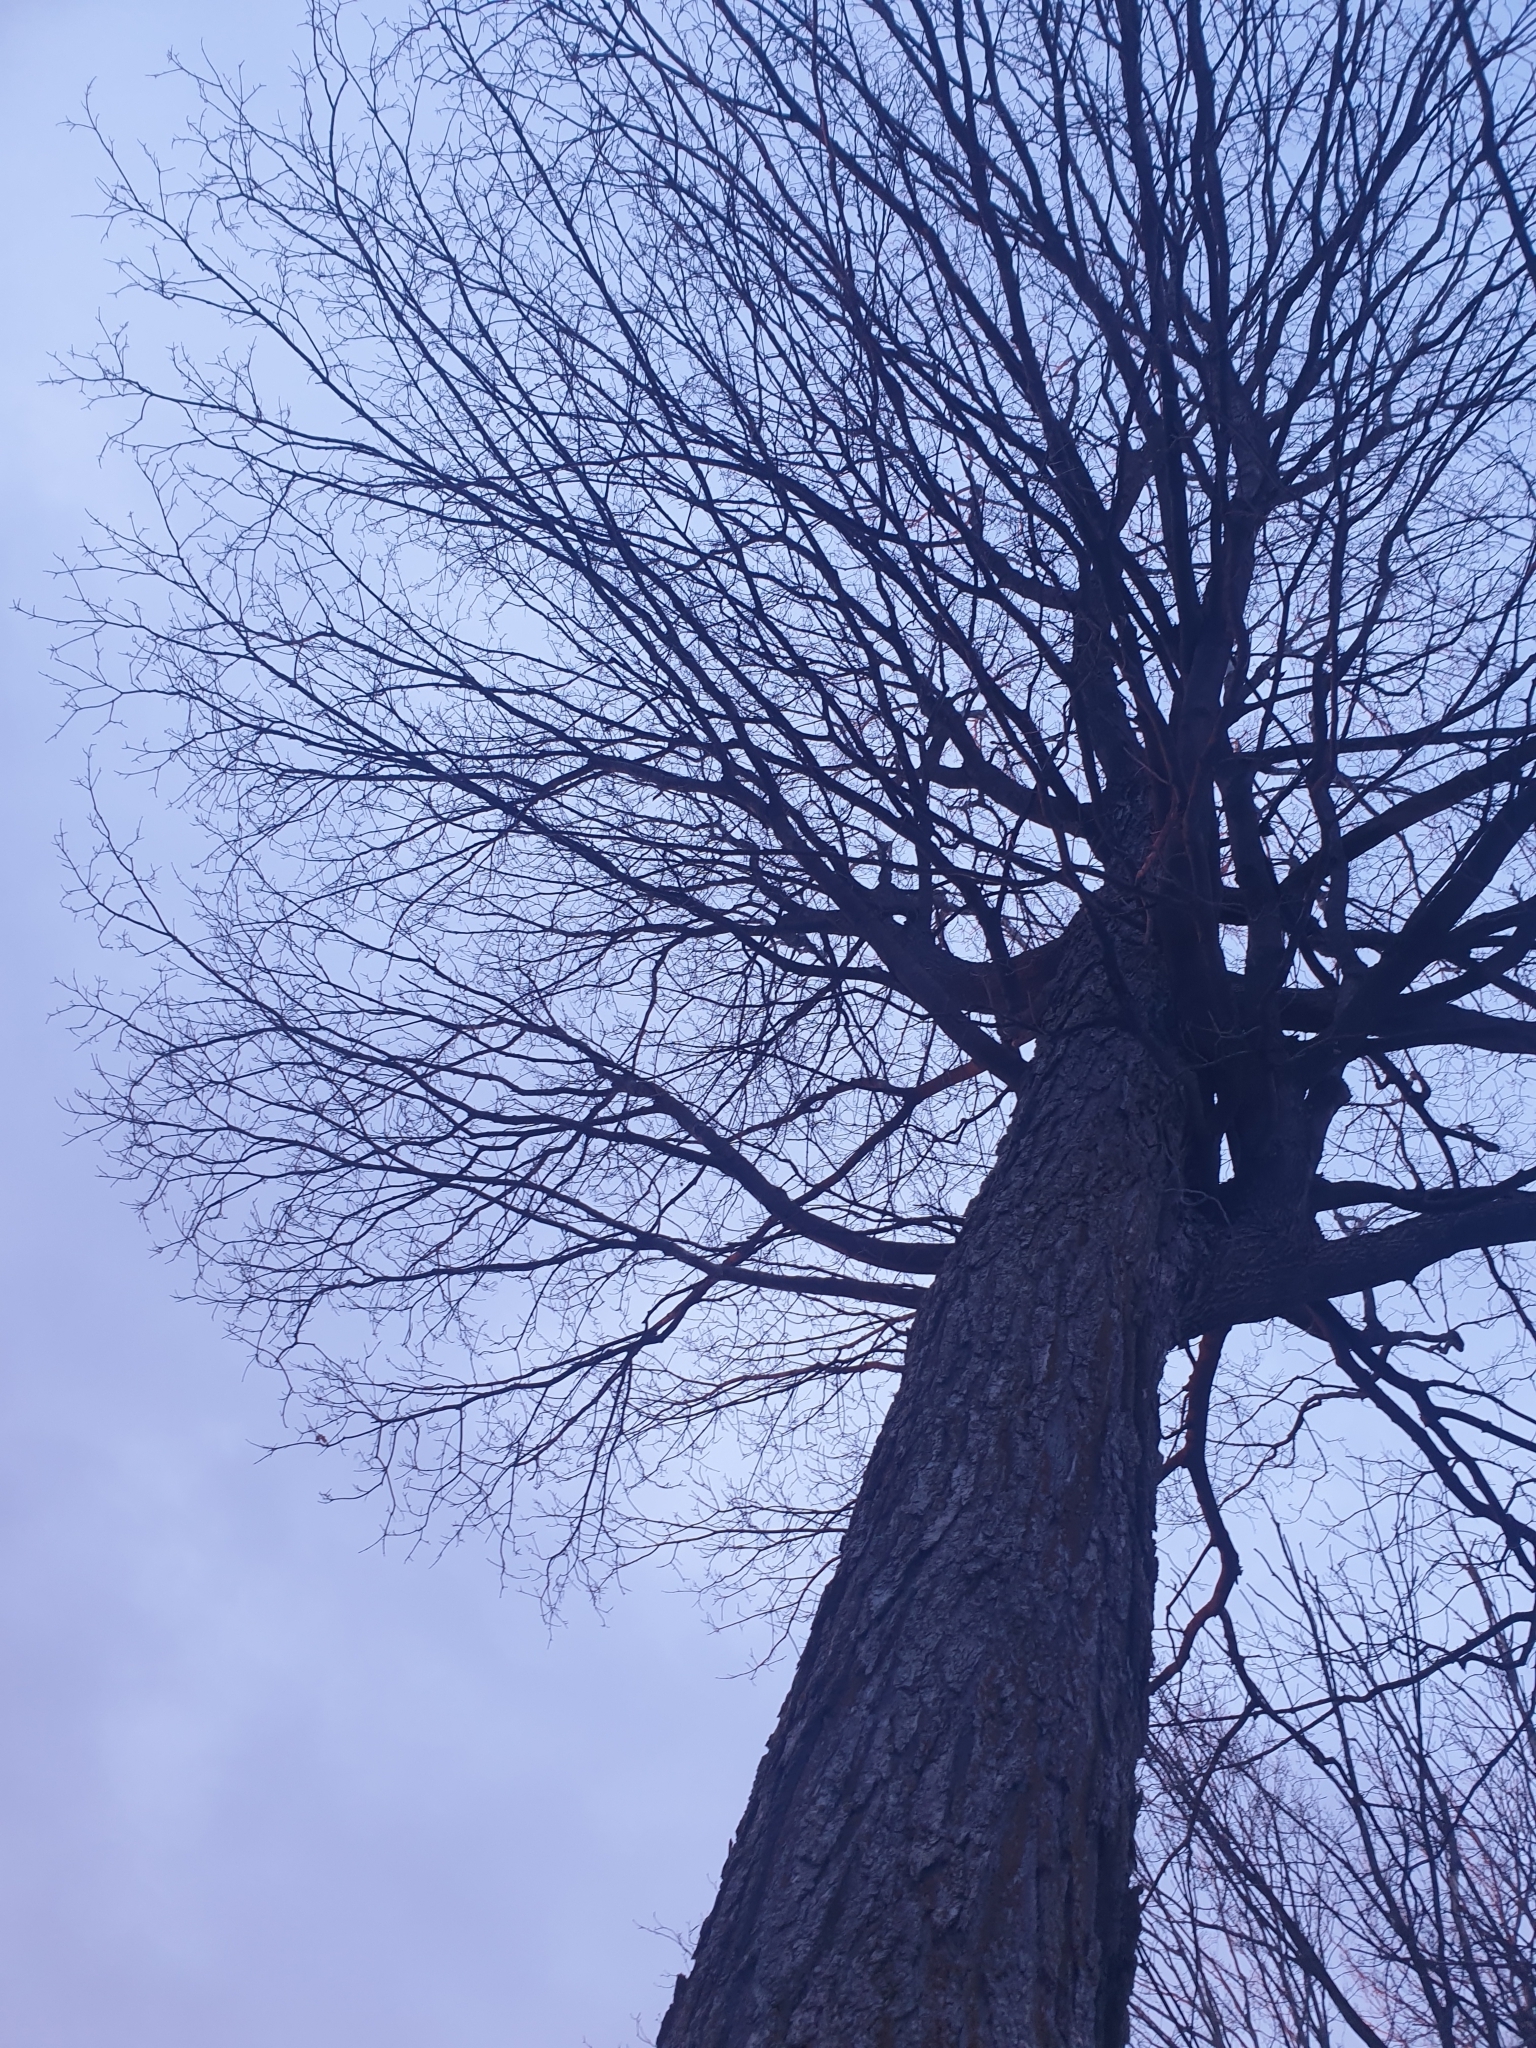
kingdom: Plantae
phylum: Tracheophyta
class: Magnoliopsida
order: Sapindales
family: Sapindaceae
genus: Acer
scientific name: Acer saccharum
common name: Sugar maple
